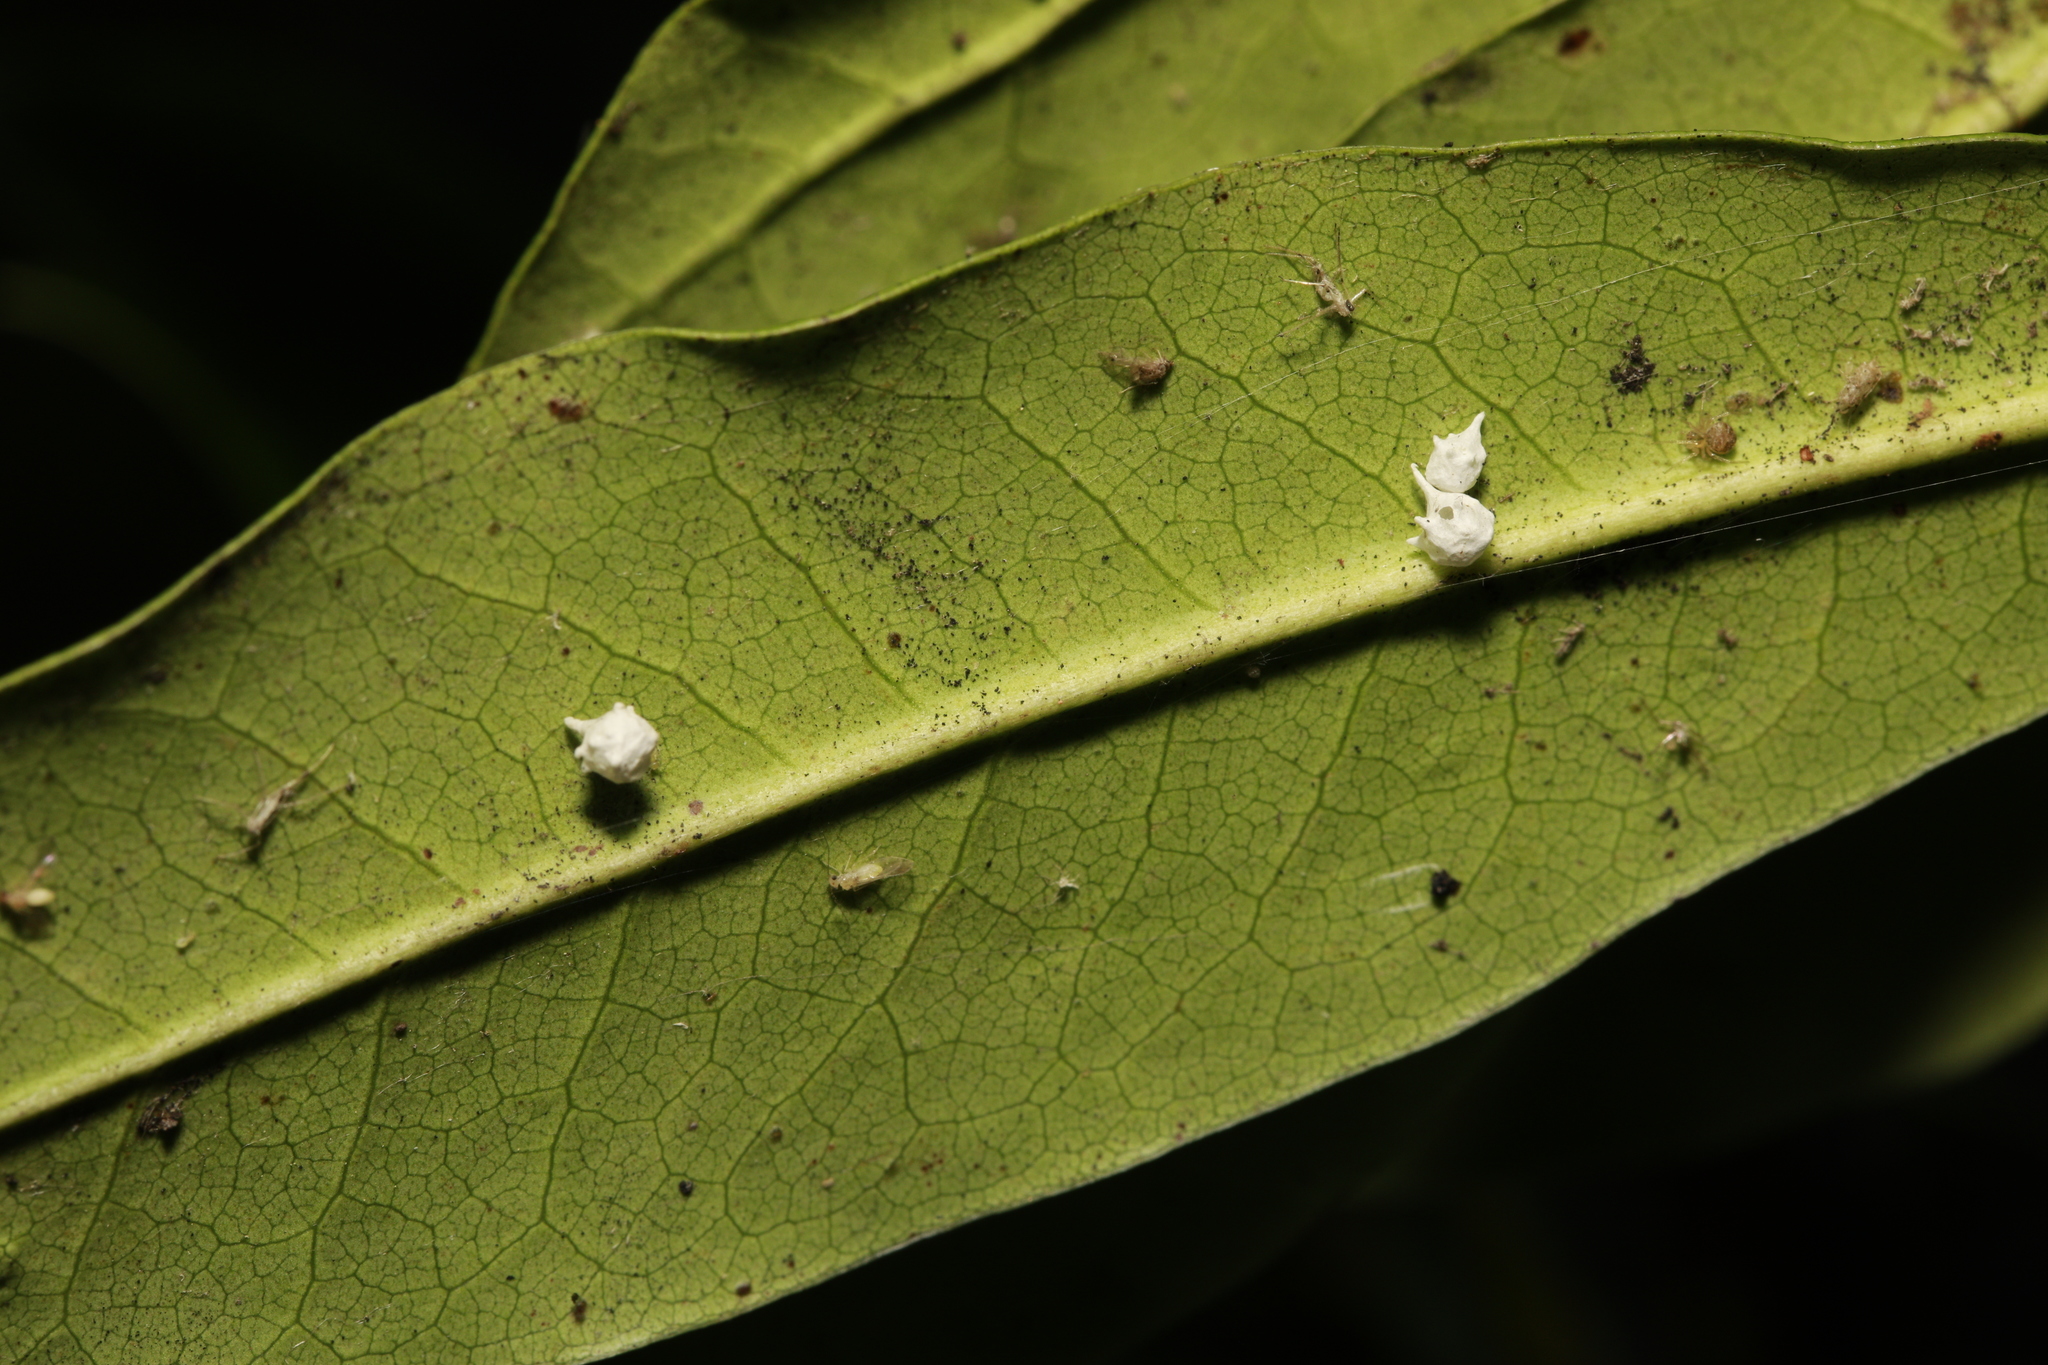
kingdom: Animalia
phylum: Arthropoda
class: Arachnida
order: Araneae
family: Theridiidae
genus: Paidiscura
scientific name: Paidiscura pallens
